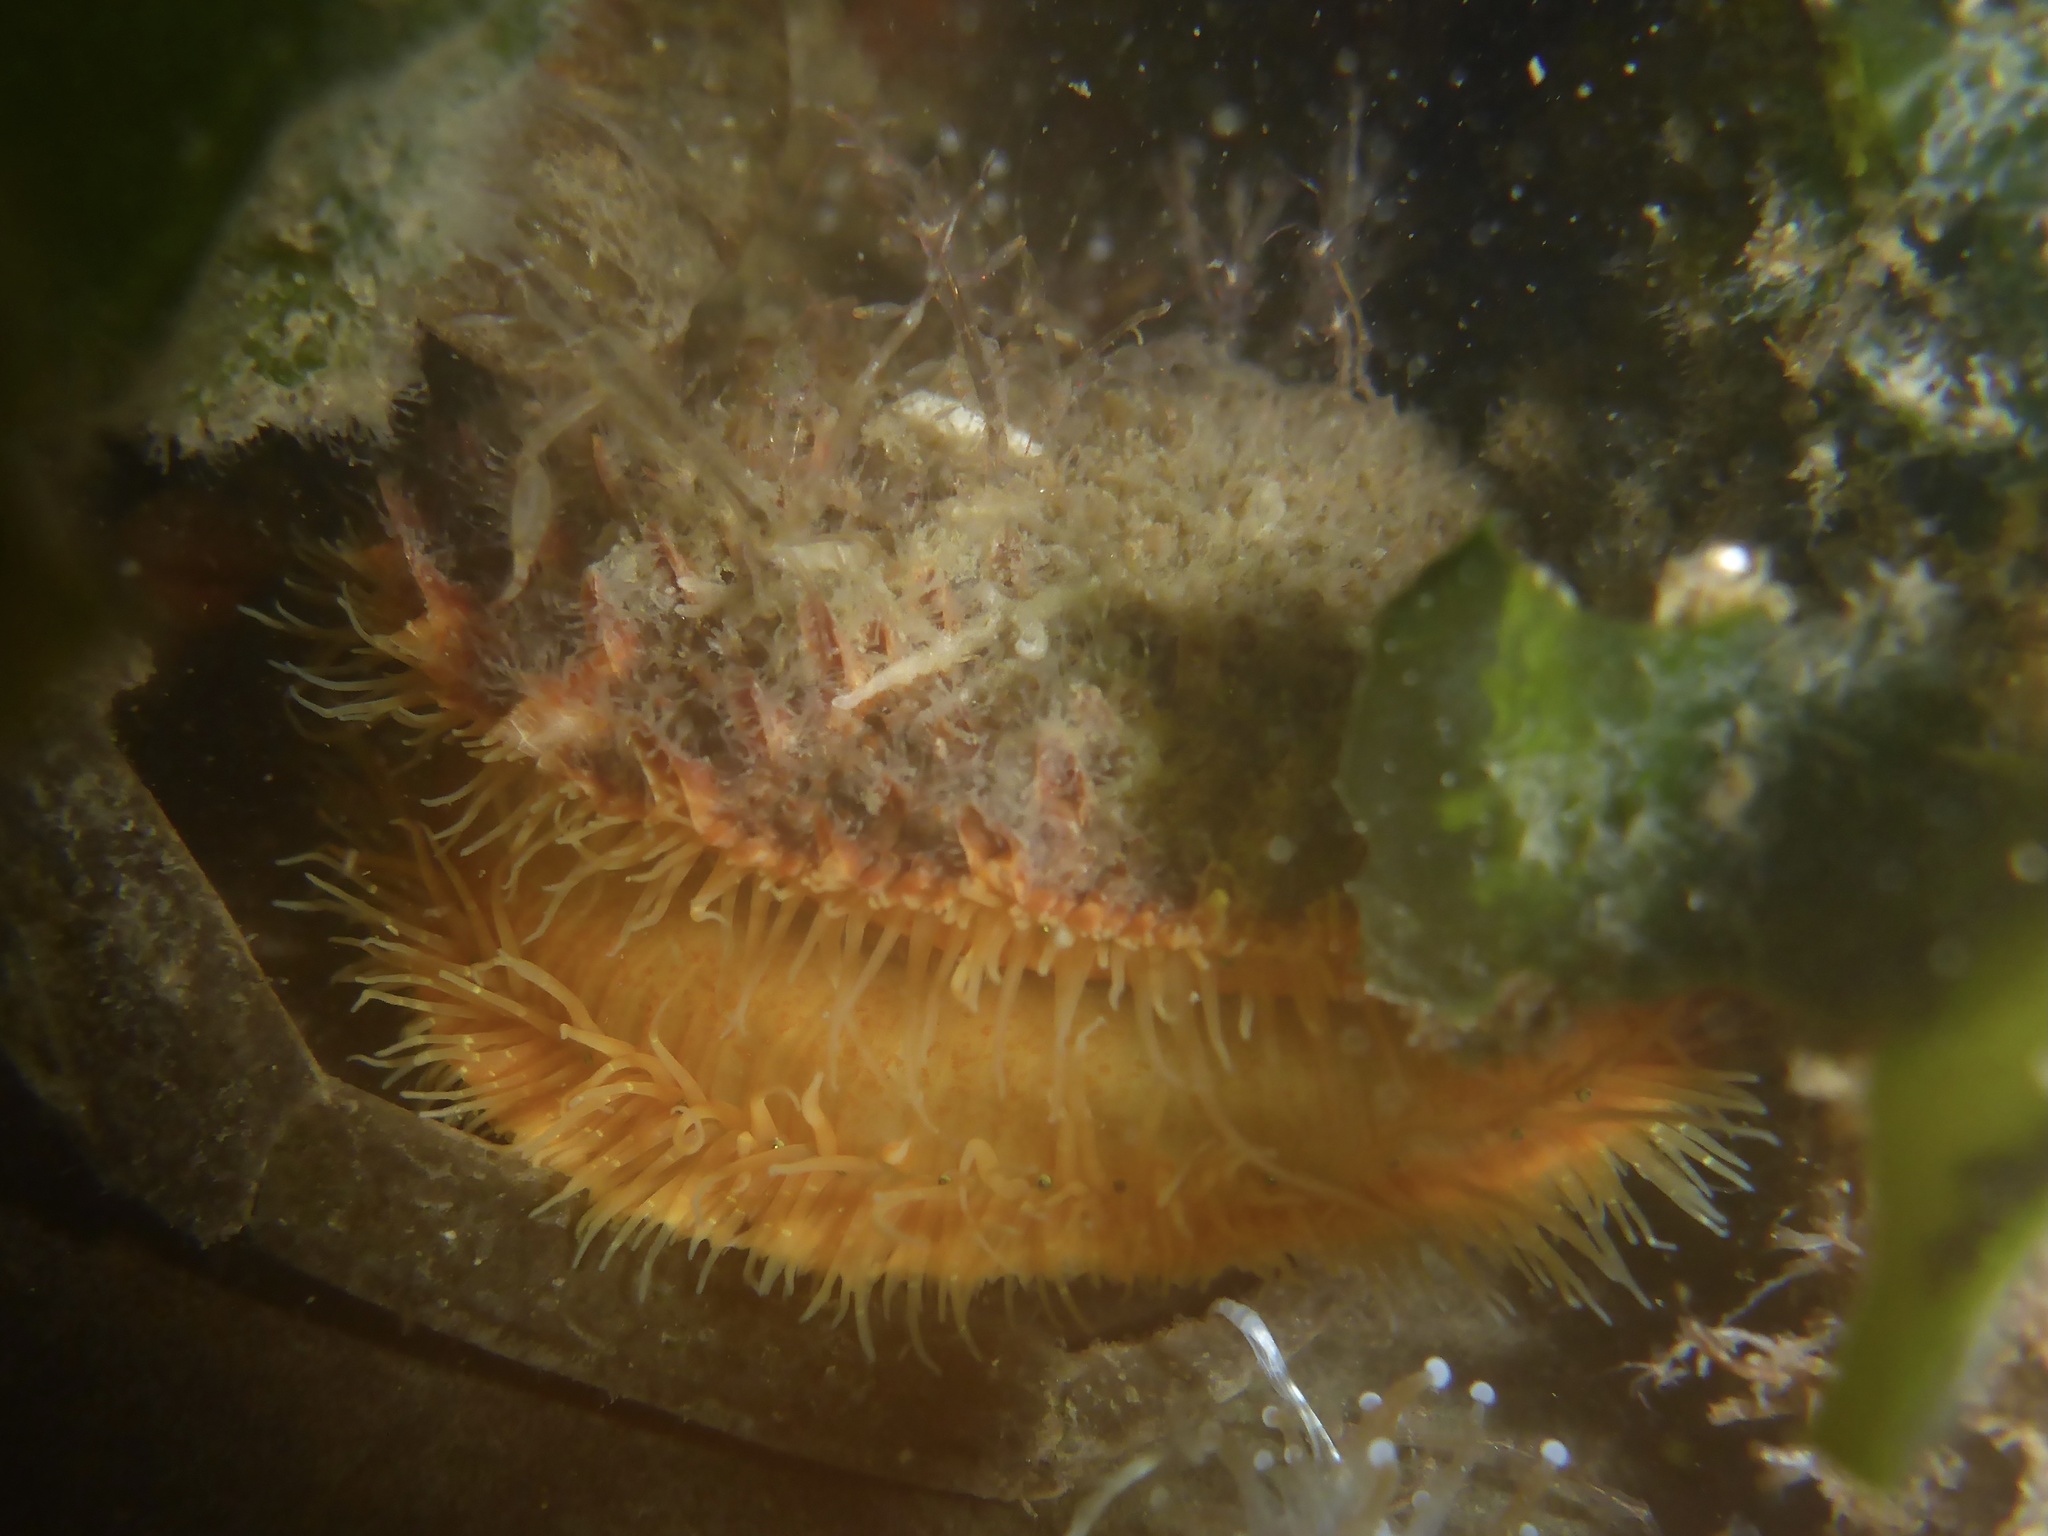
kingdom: Animalia
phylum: Mollusca
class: Bivalvia
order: Pectinida
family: Pectinidae
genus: Crassadoma
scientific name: Crassadoma gigantea
